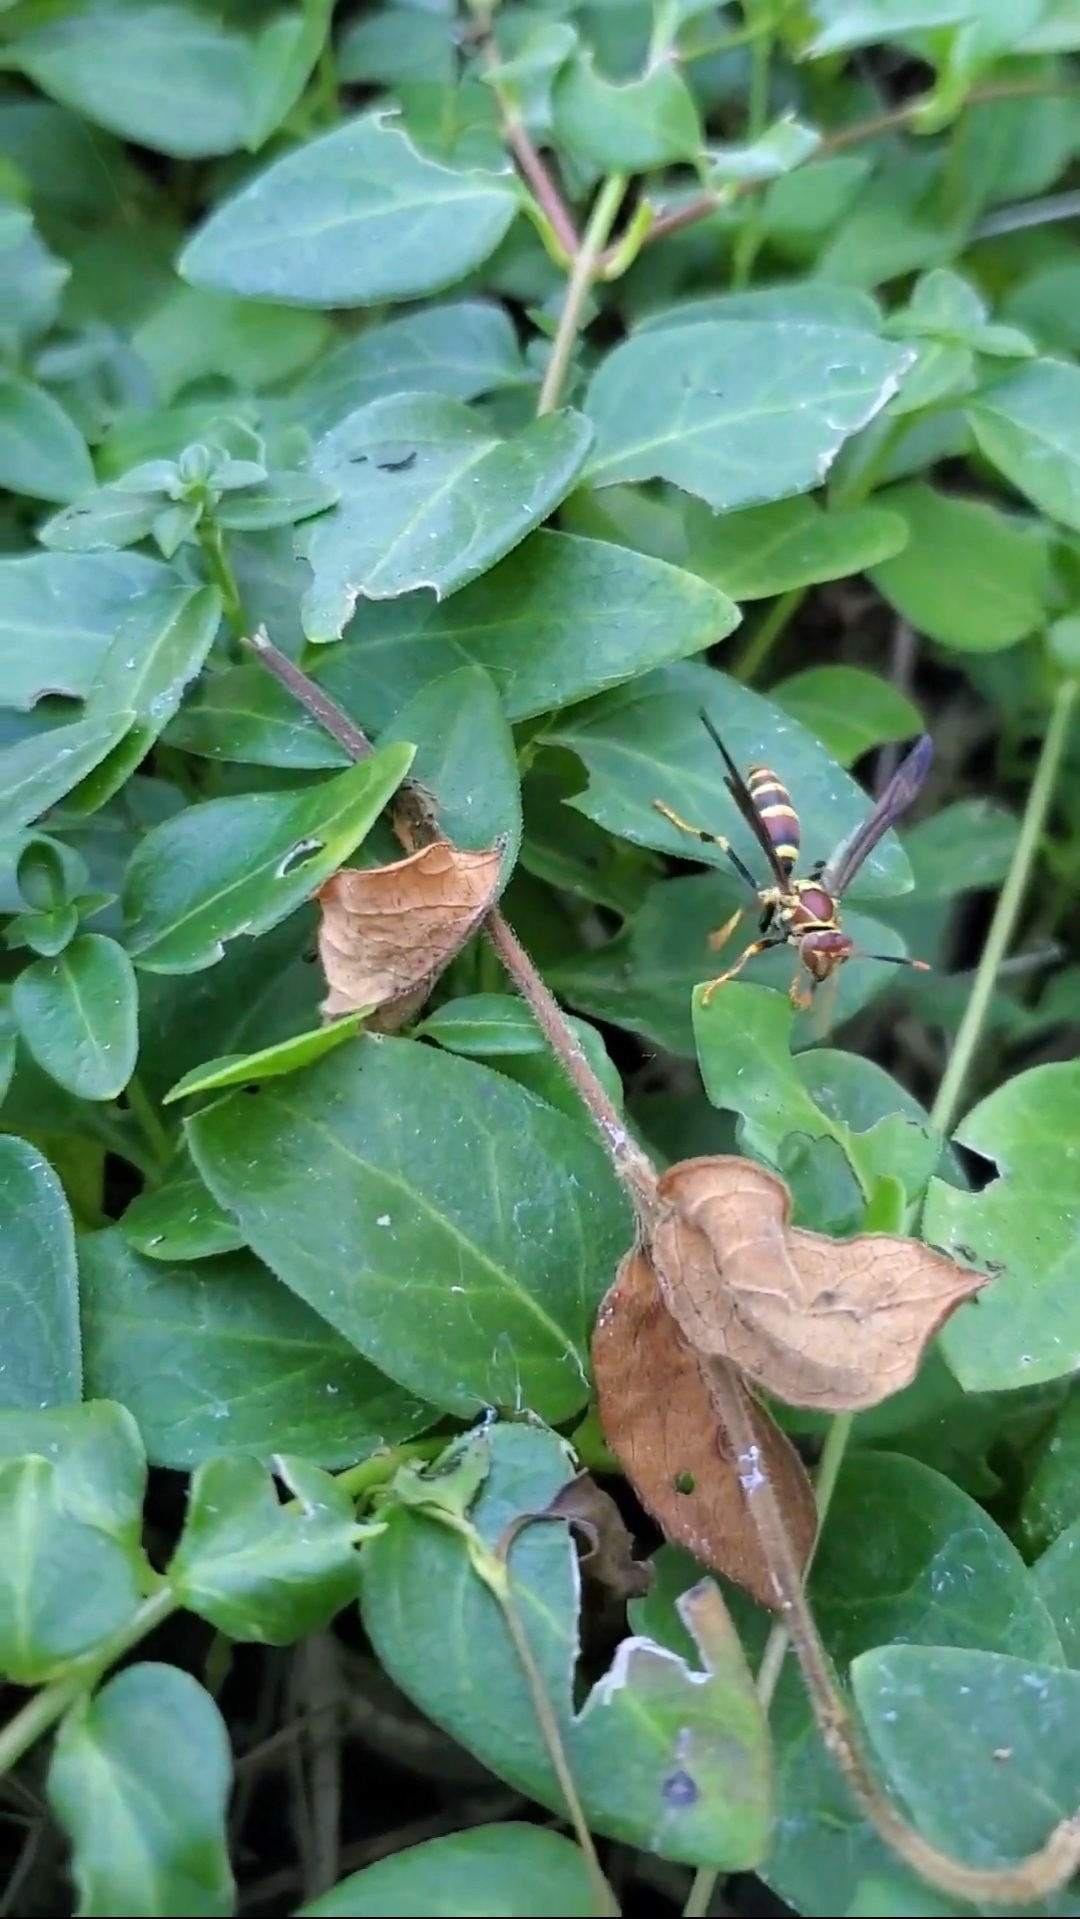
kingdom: Animalia
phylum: Arthropoda
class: Insecta
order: Hymenoptera
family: Eumenidae
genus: Polistes
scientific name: Polistes exclamans
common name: Paper wasp
